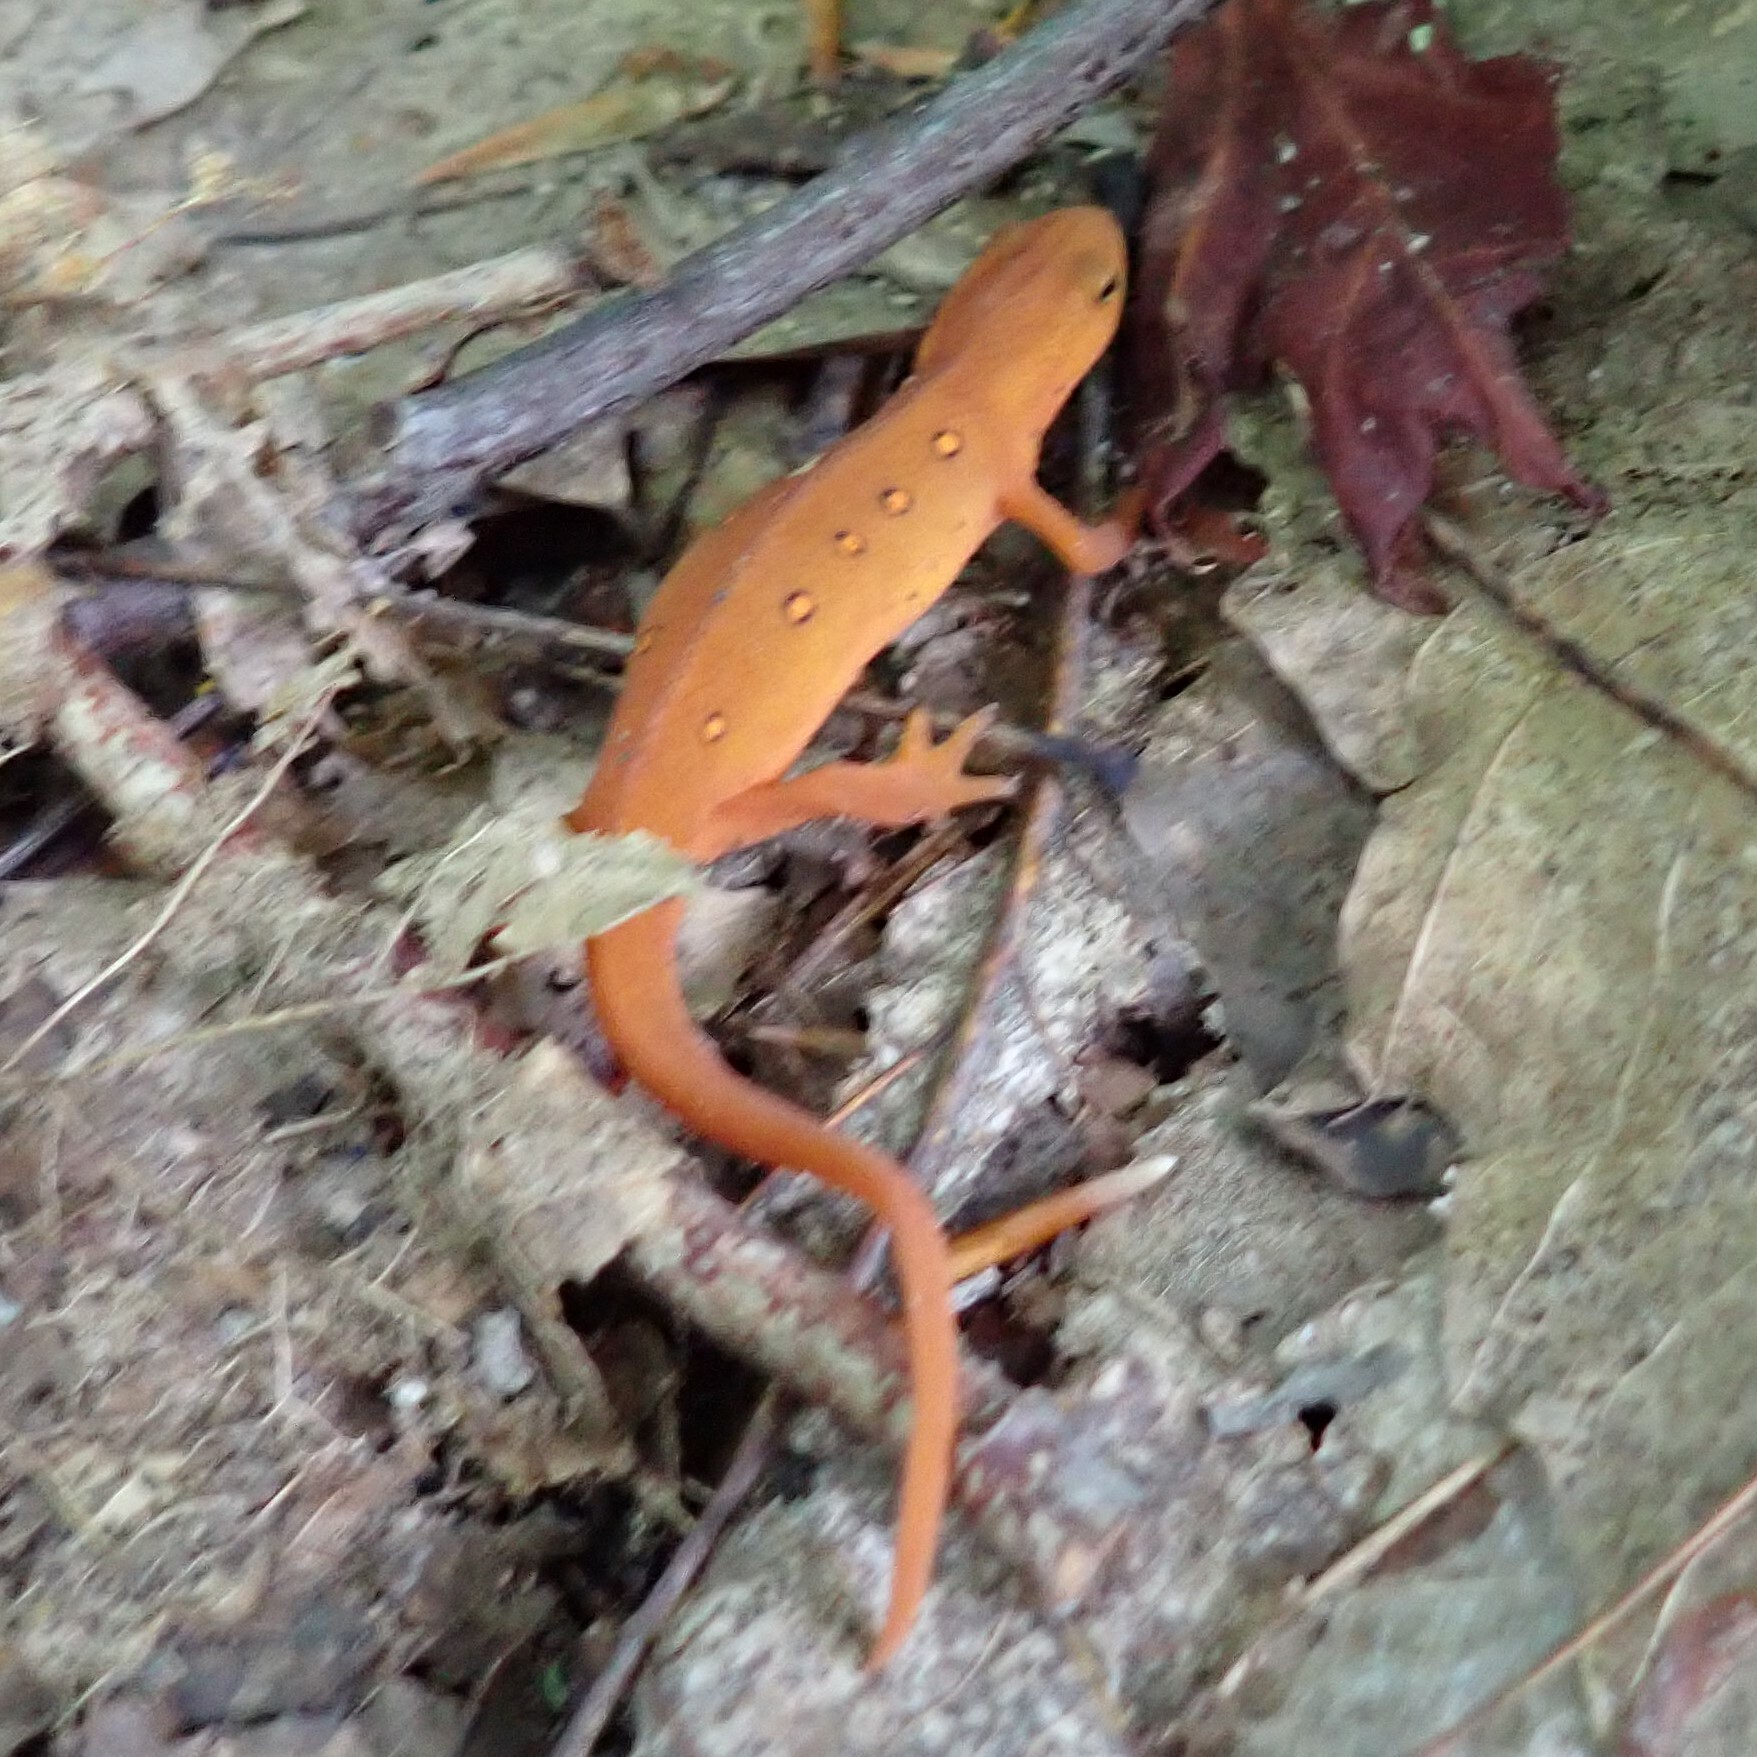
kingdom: Animalia
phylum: Chordata
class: Amphibia
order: Caudata
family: Salamandridae
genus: Notophthalmus
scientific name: Notophthalmus viridescens
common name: Eastern newt
